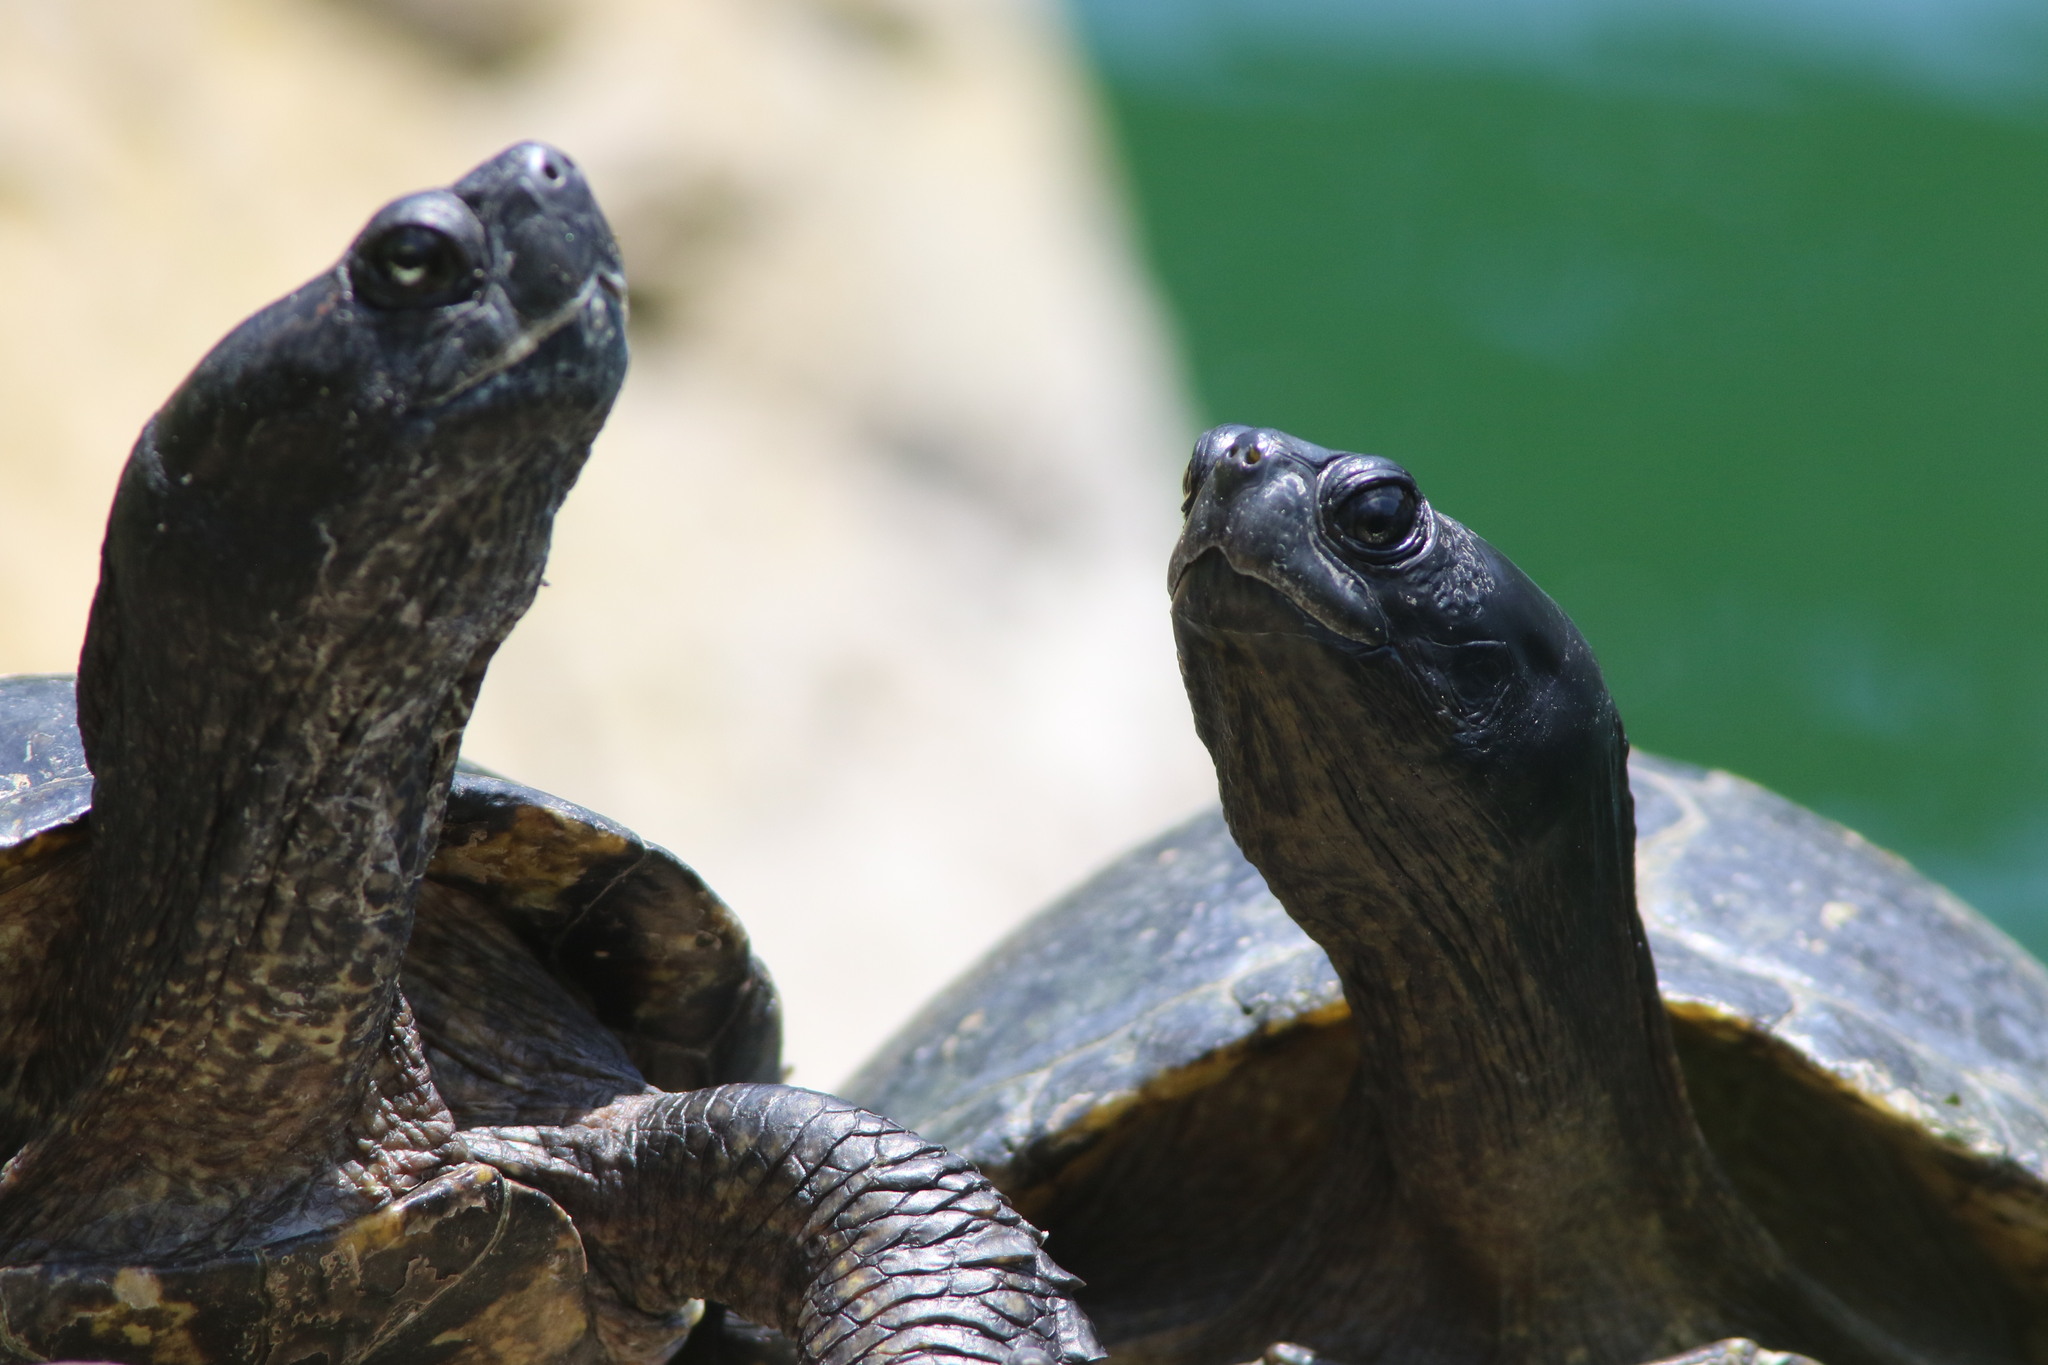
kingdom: Animalia
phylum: Chordata
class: Testudines
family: Emydidae
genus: Trachemys
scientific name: Trachemys scripta
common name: Slider
